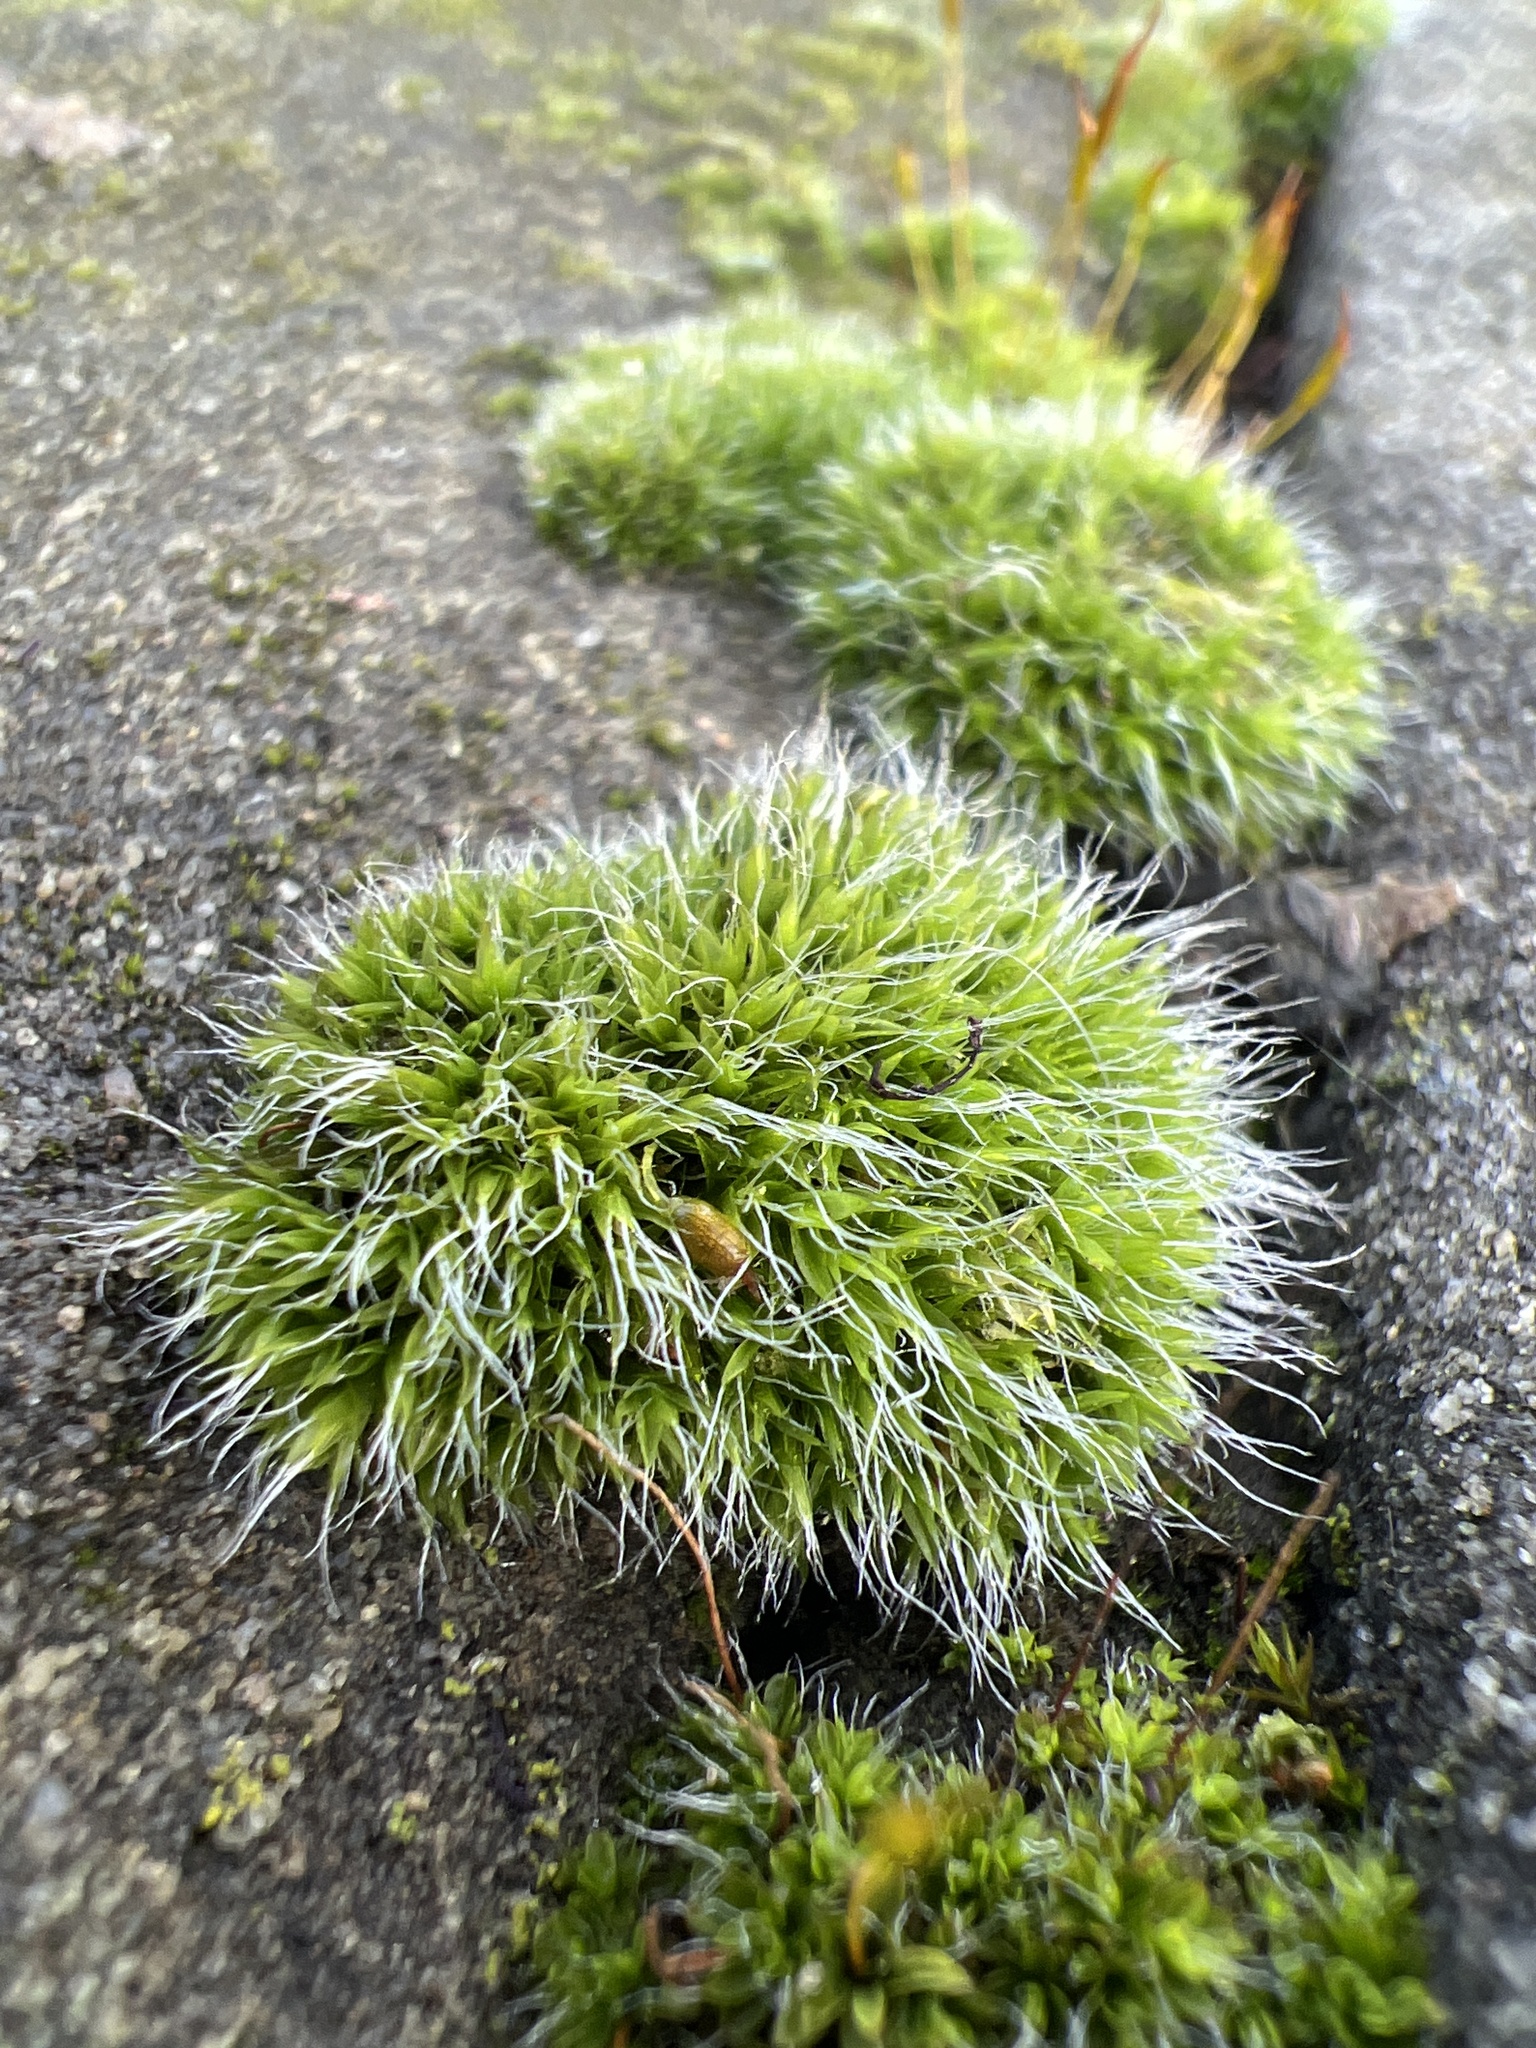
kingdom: Plantae
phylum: Bryophyta
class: Bryopsida
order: Grimmiales
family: Grimmiaceae
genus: Grimmia
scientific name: Grimmia pulvinata
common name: Grey-cushioned grimmia
